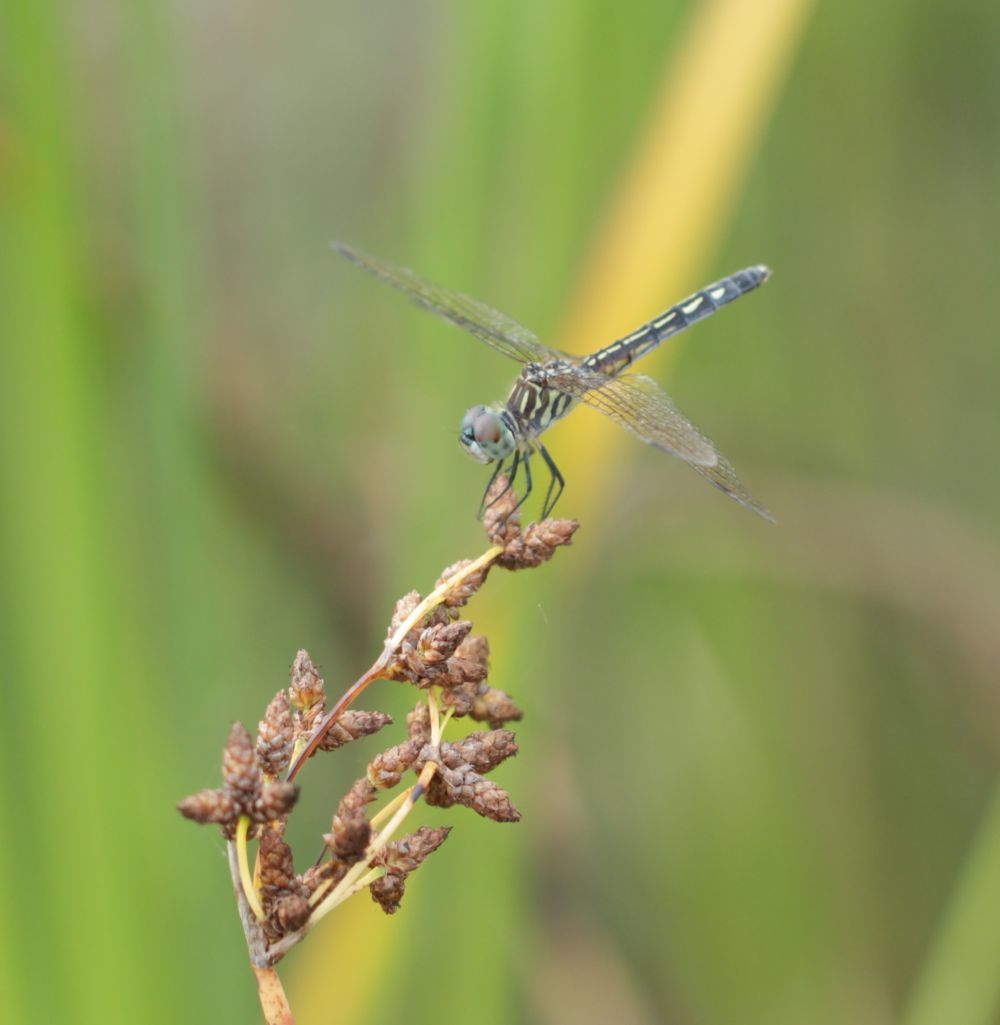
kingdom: Animalia
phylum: Arthropoda
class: Insecta
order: Odonata
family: Libellulidae
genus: Pachydiplax
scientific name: Pachydiplax longipennis
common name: Blue dasher
